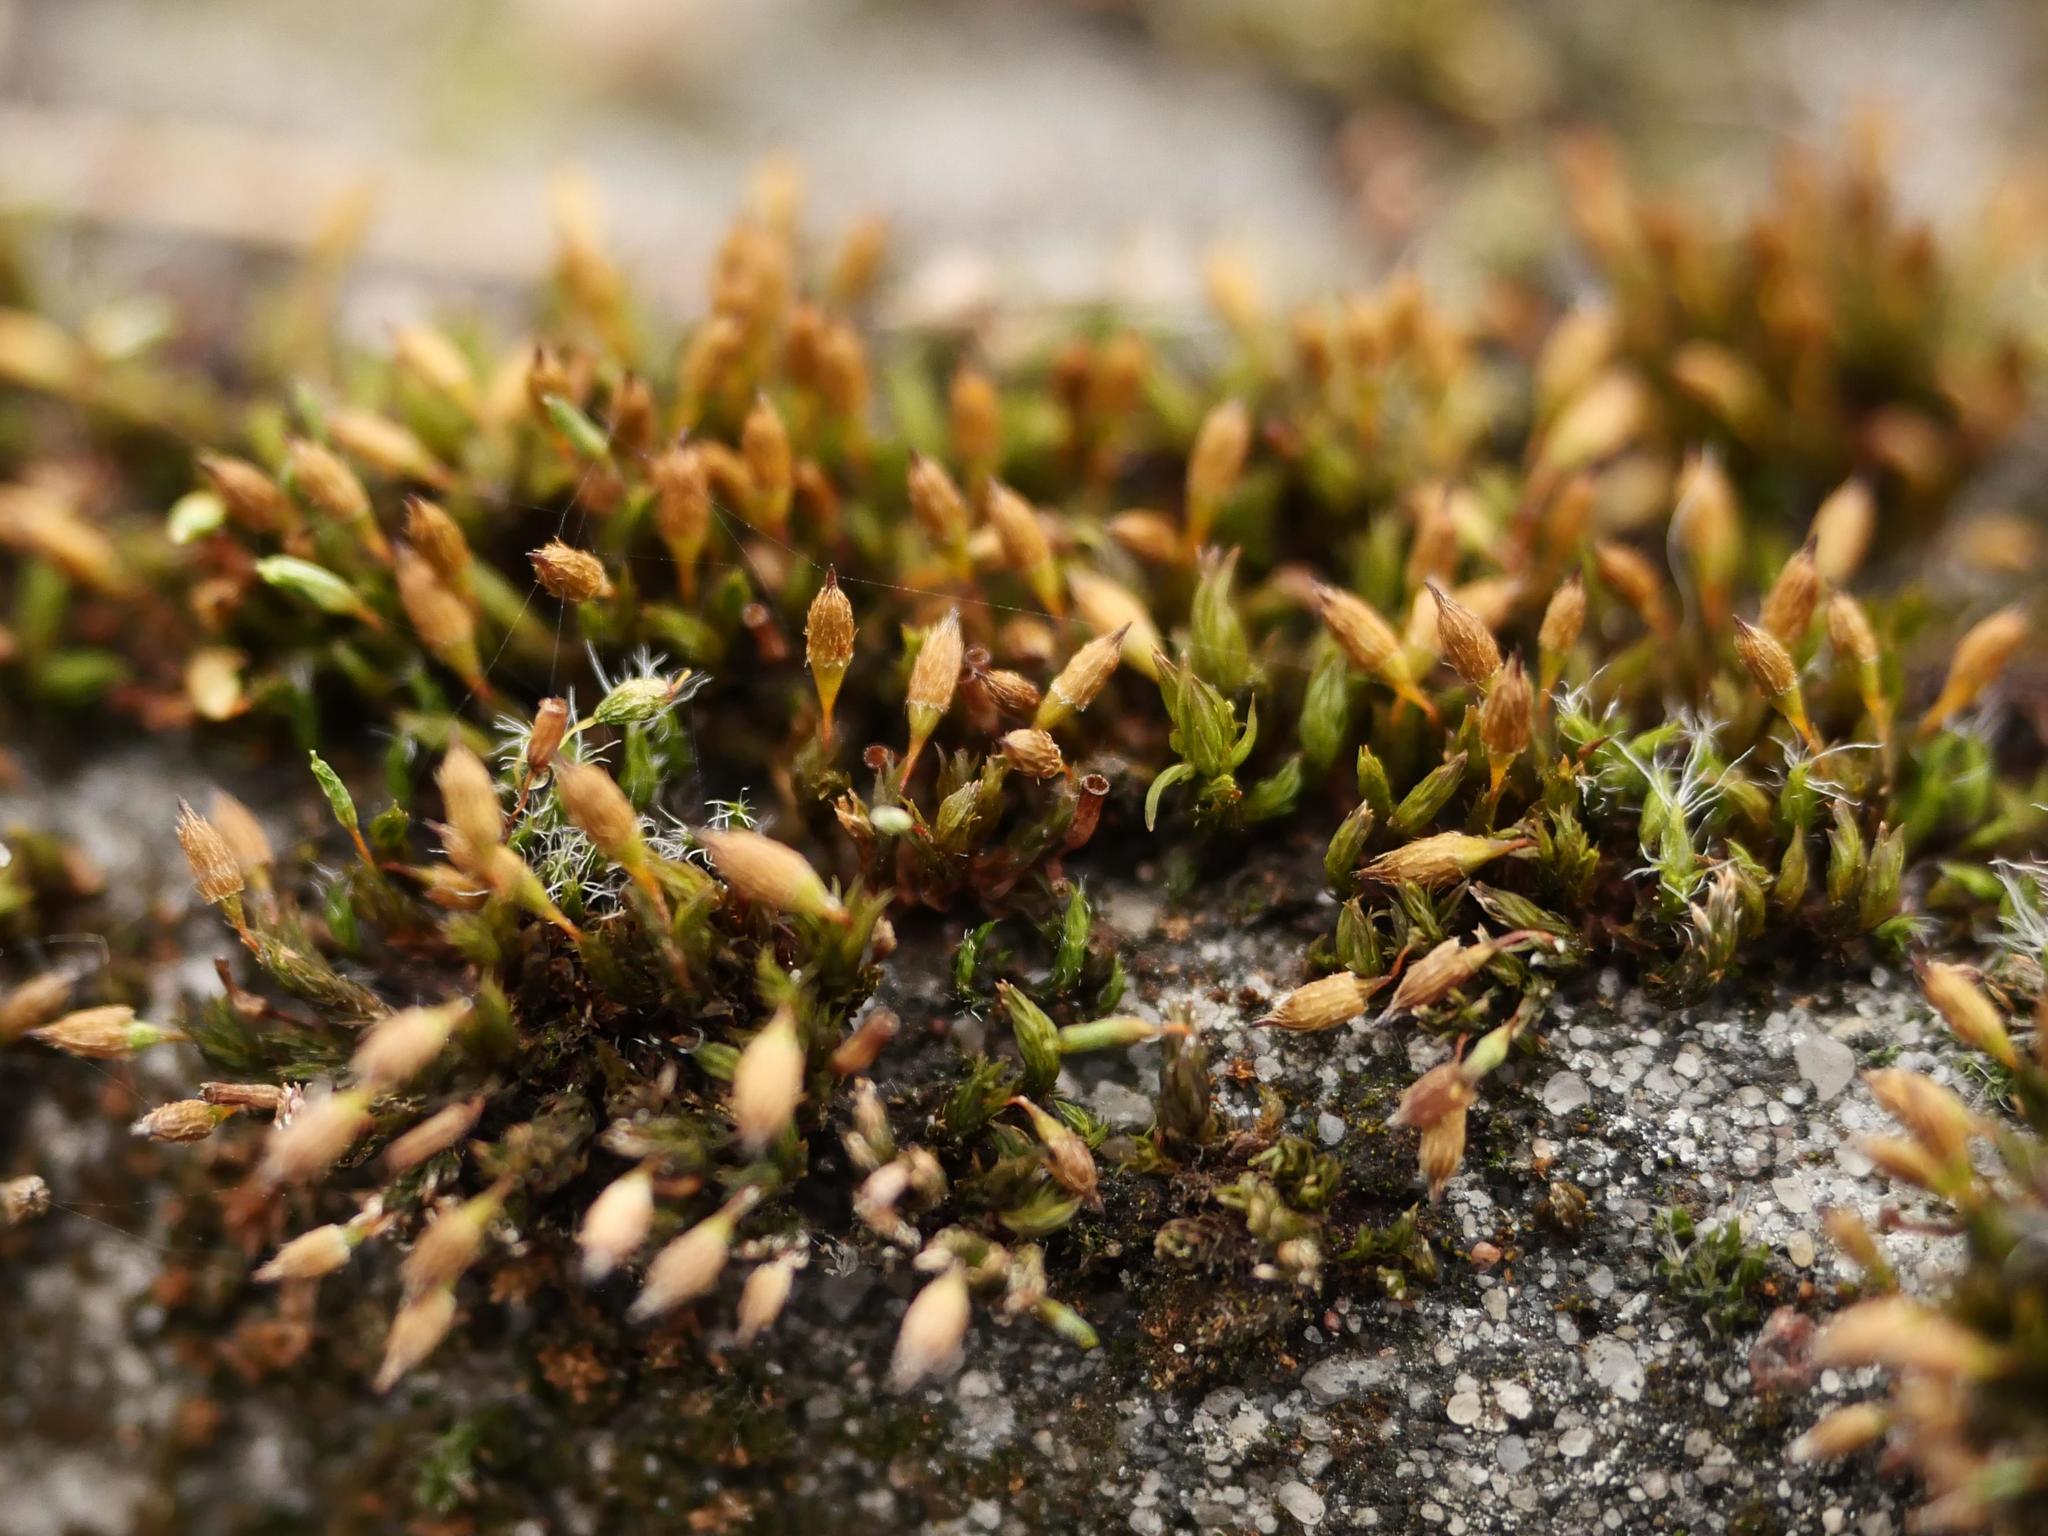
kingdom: Plantae
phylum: Bryophyta
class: Bryopsida
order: Orthotrichales
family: Orthotrichaceae
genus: Orthotrichum
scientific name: Orthotrichum anomalum
